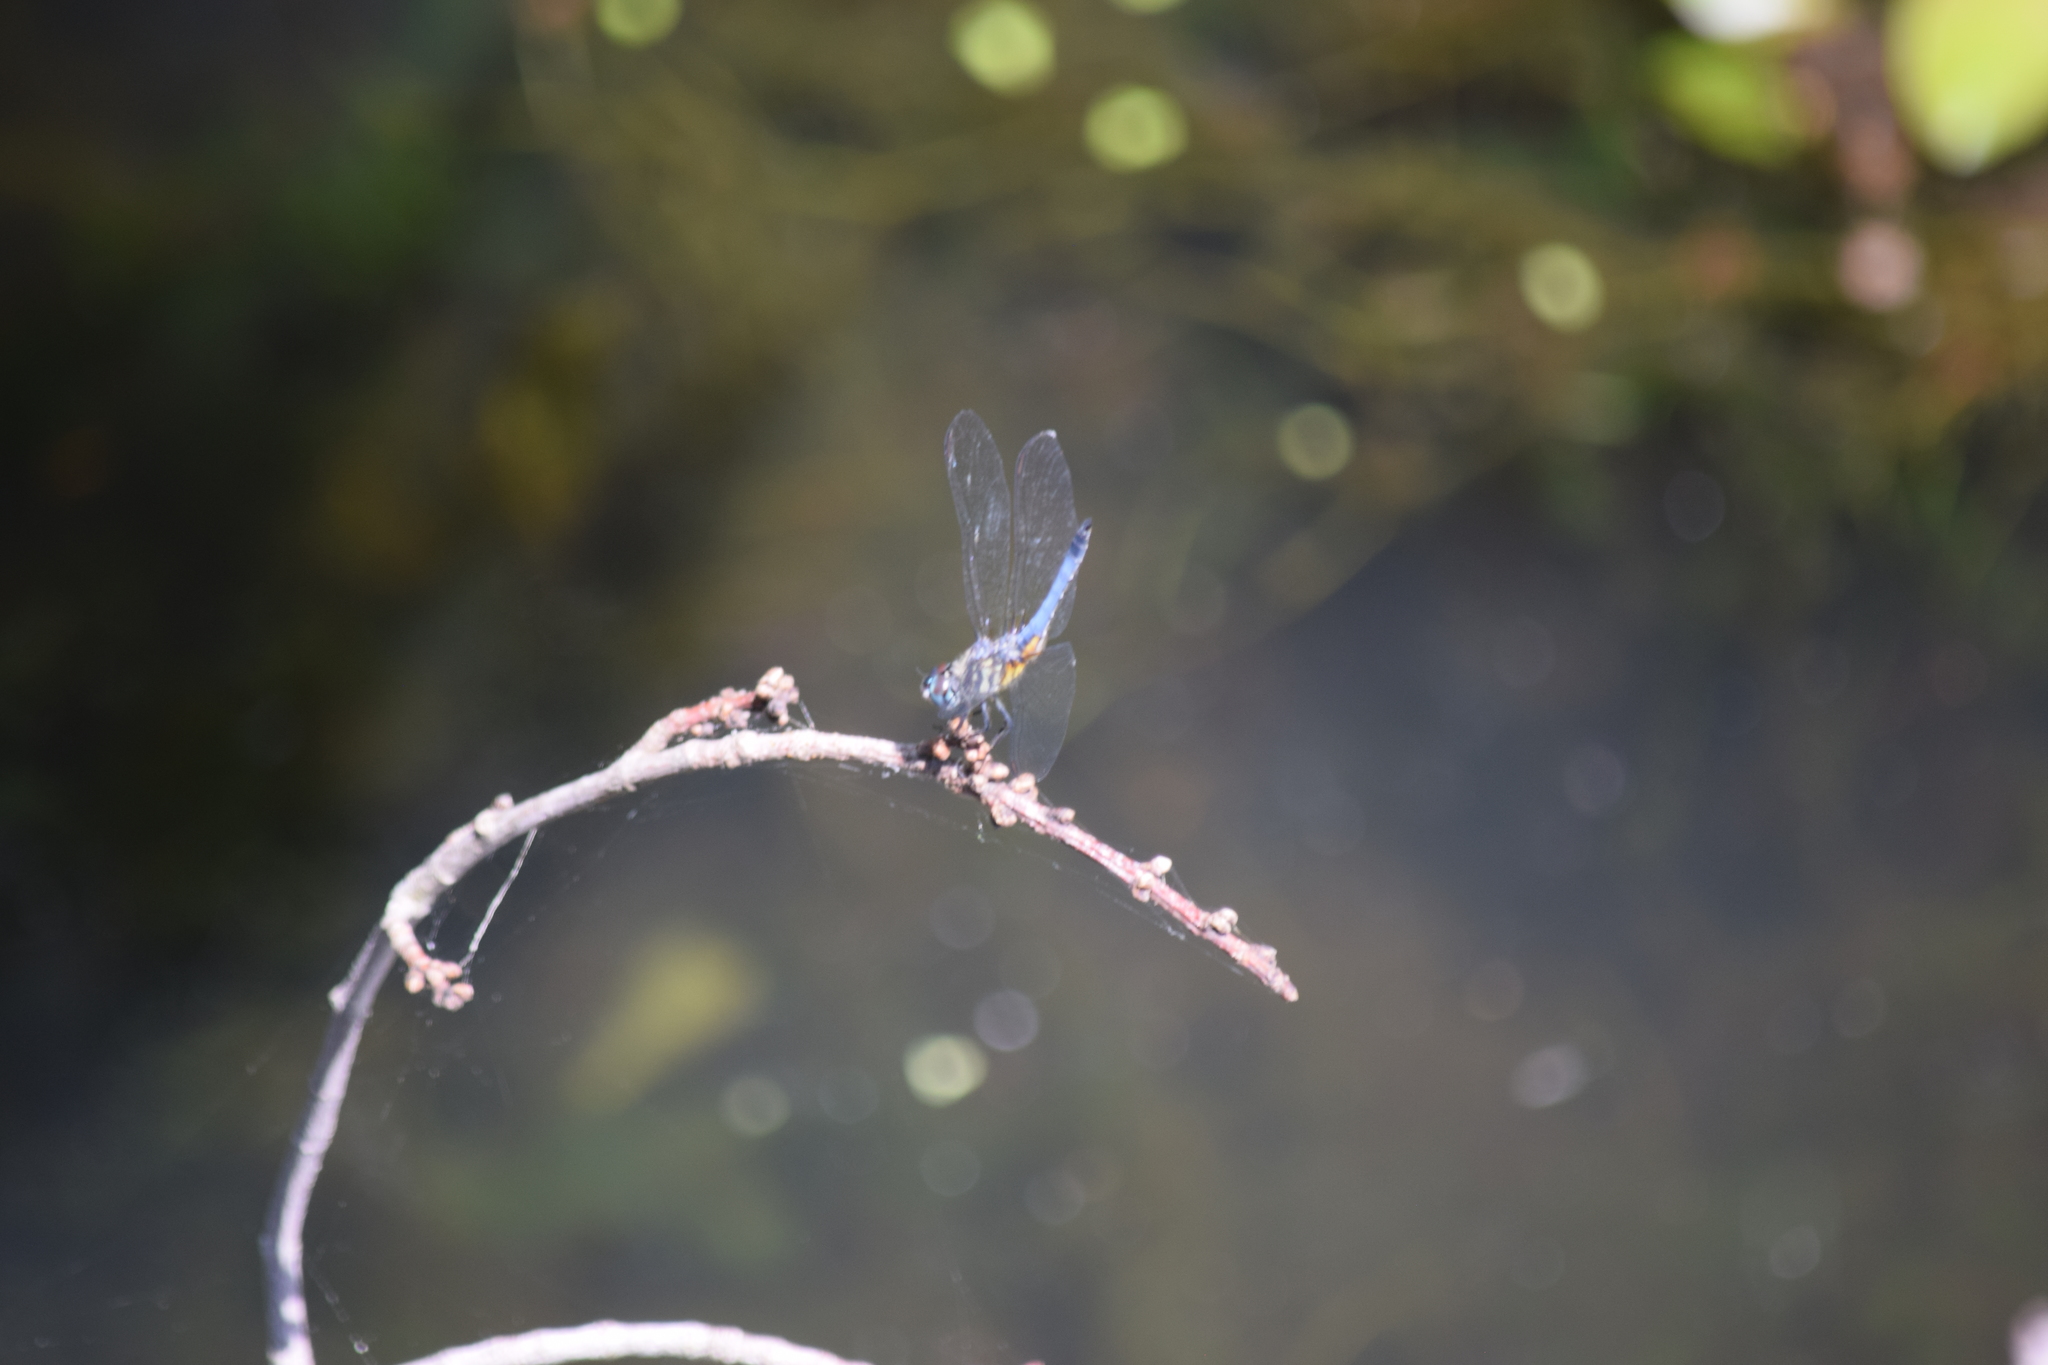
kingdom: Animalia
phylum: Arthropoda
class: Insecta
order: Odonata
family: Libellulidae
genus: Pachydiplax
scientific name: Pachydiplax longipennis
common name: Blue dasher
